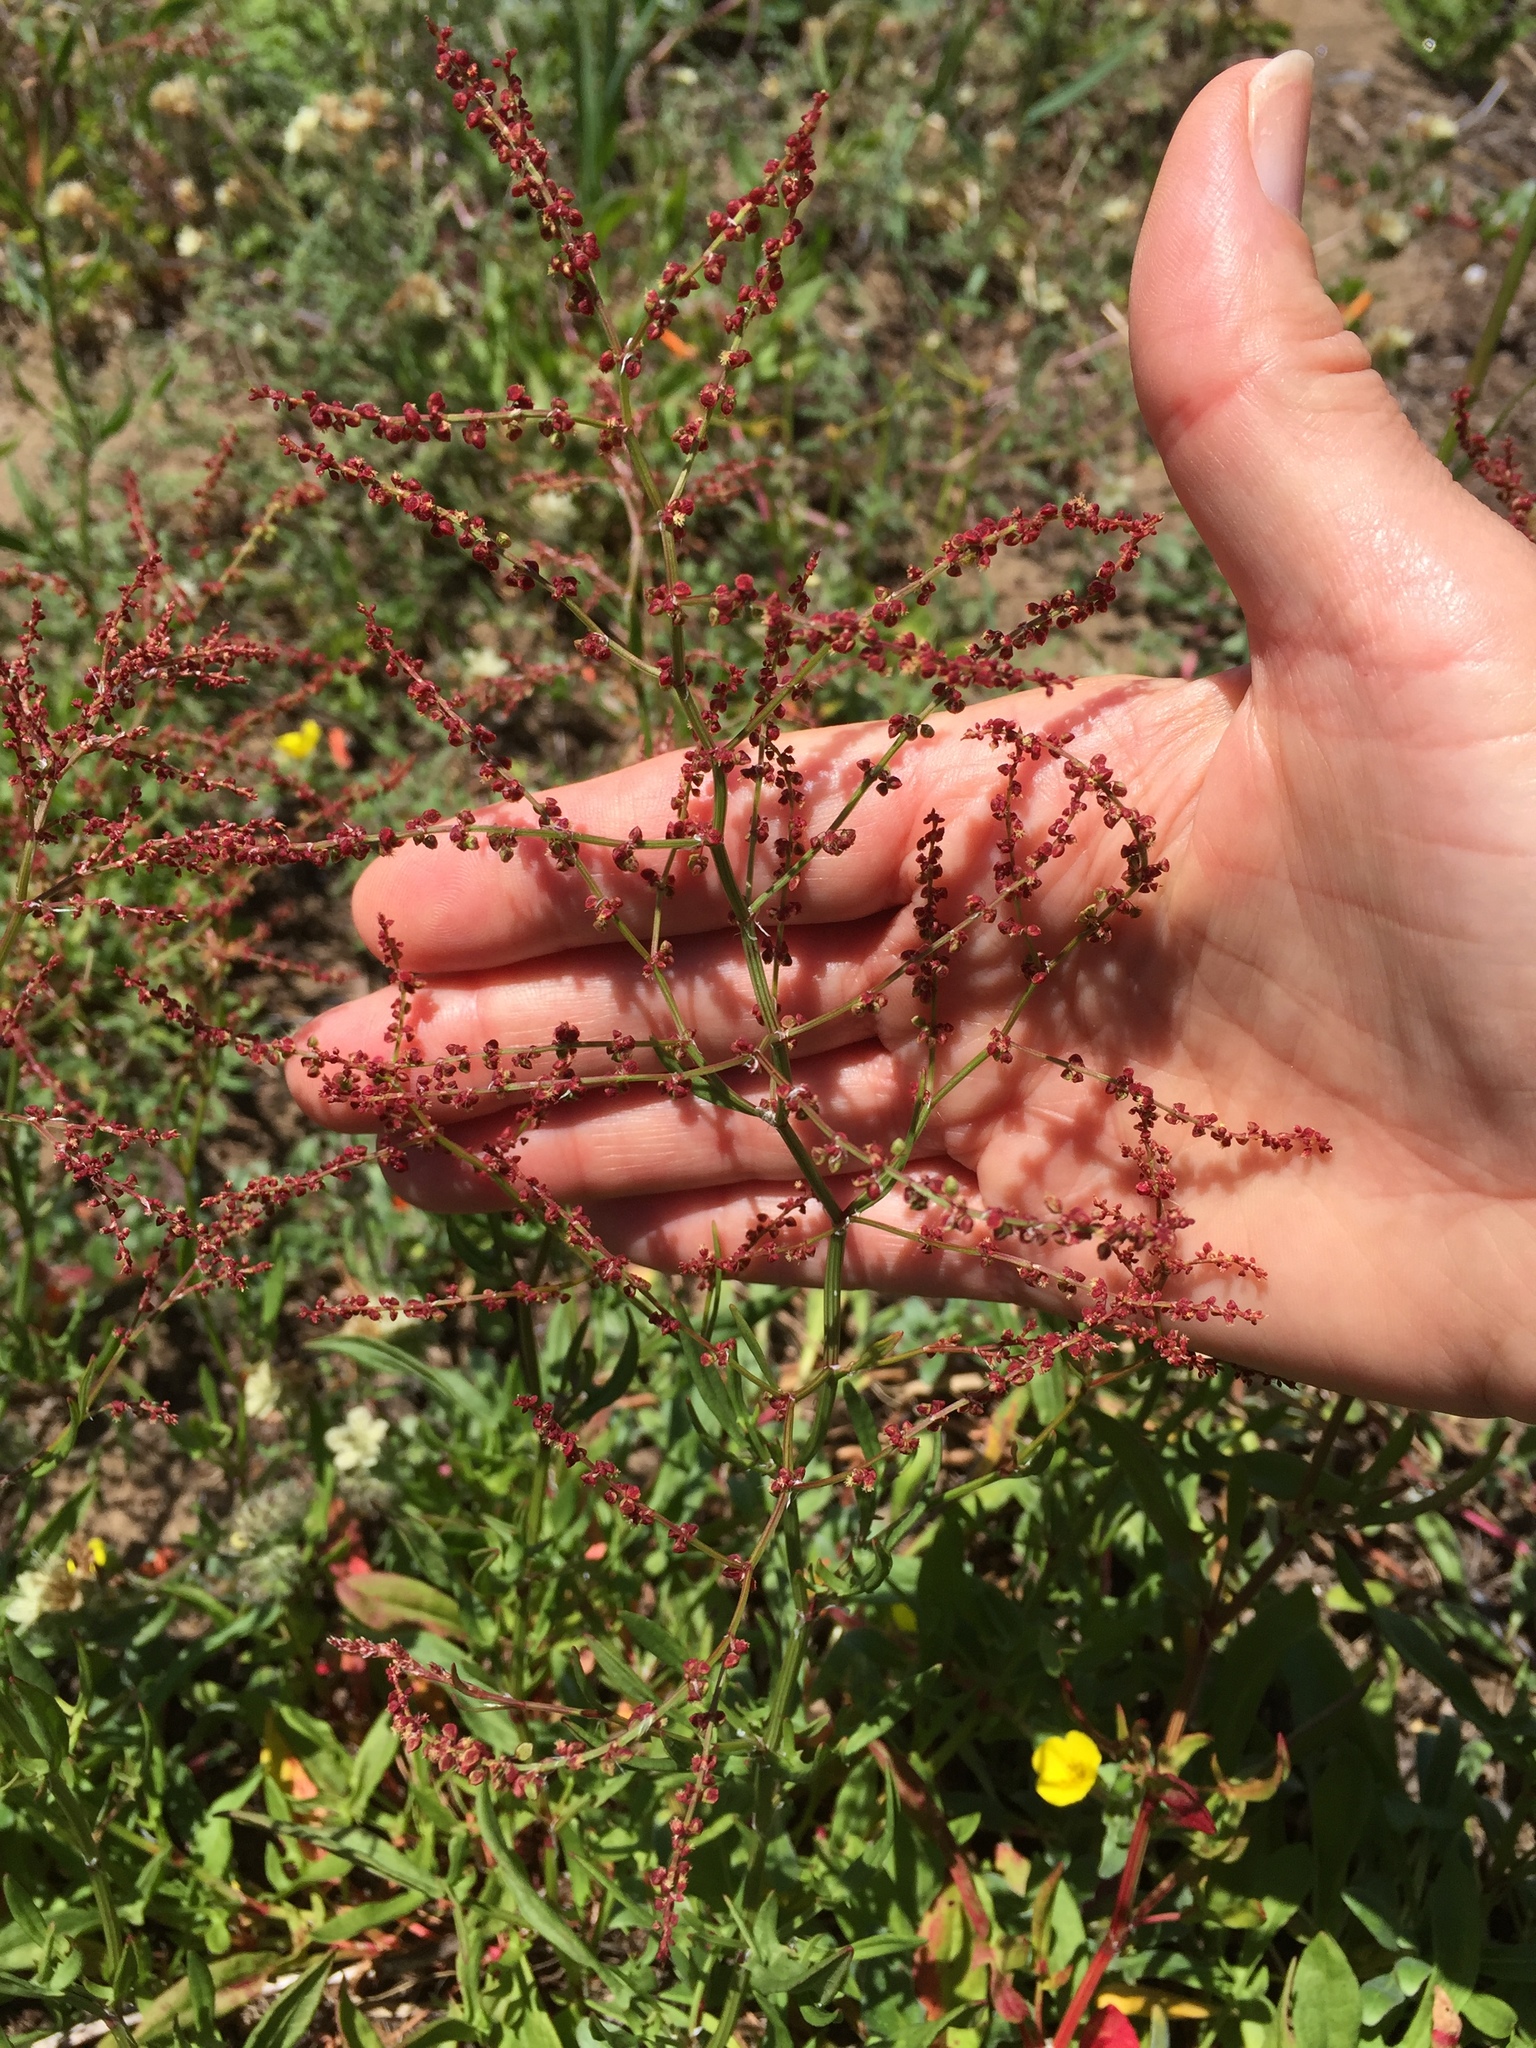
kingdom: Plantae
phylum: Tracheophyta
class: Magnoliopsida
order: Caryophyllales
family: Polygonaceae
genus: Rumex
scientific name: Rumex acetosella
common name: Common sheep sorrel
